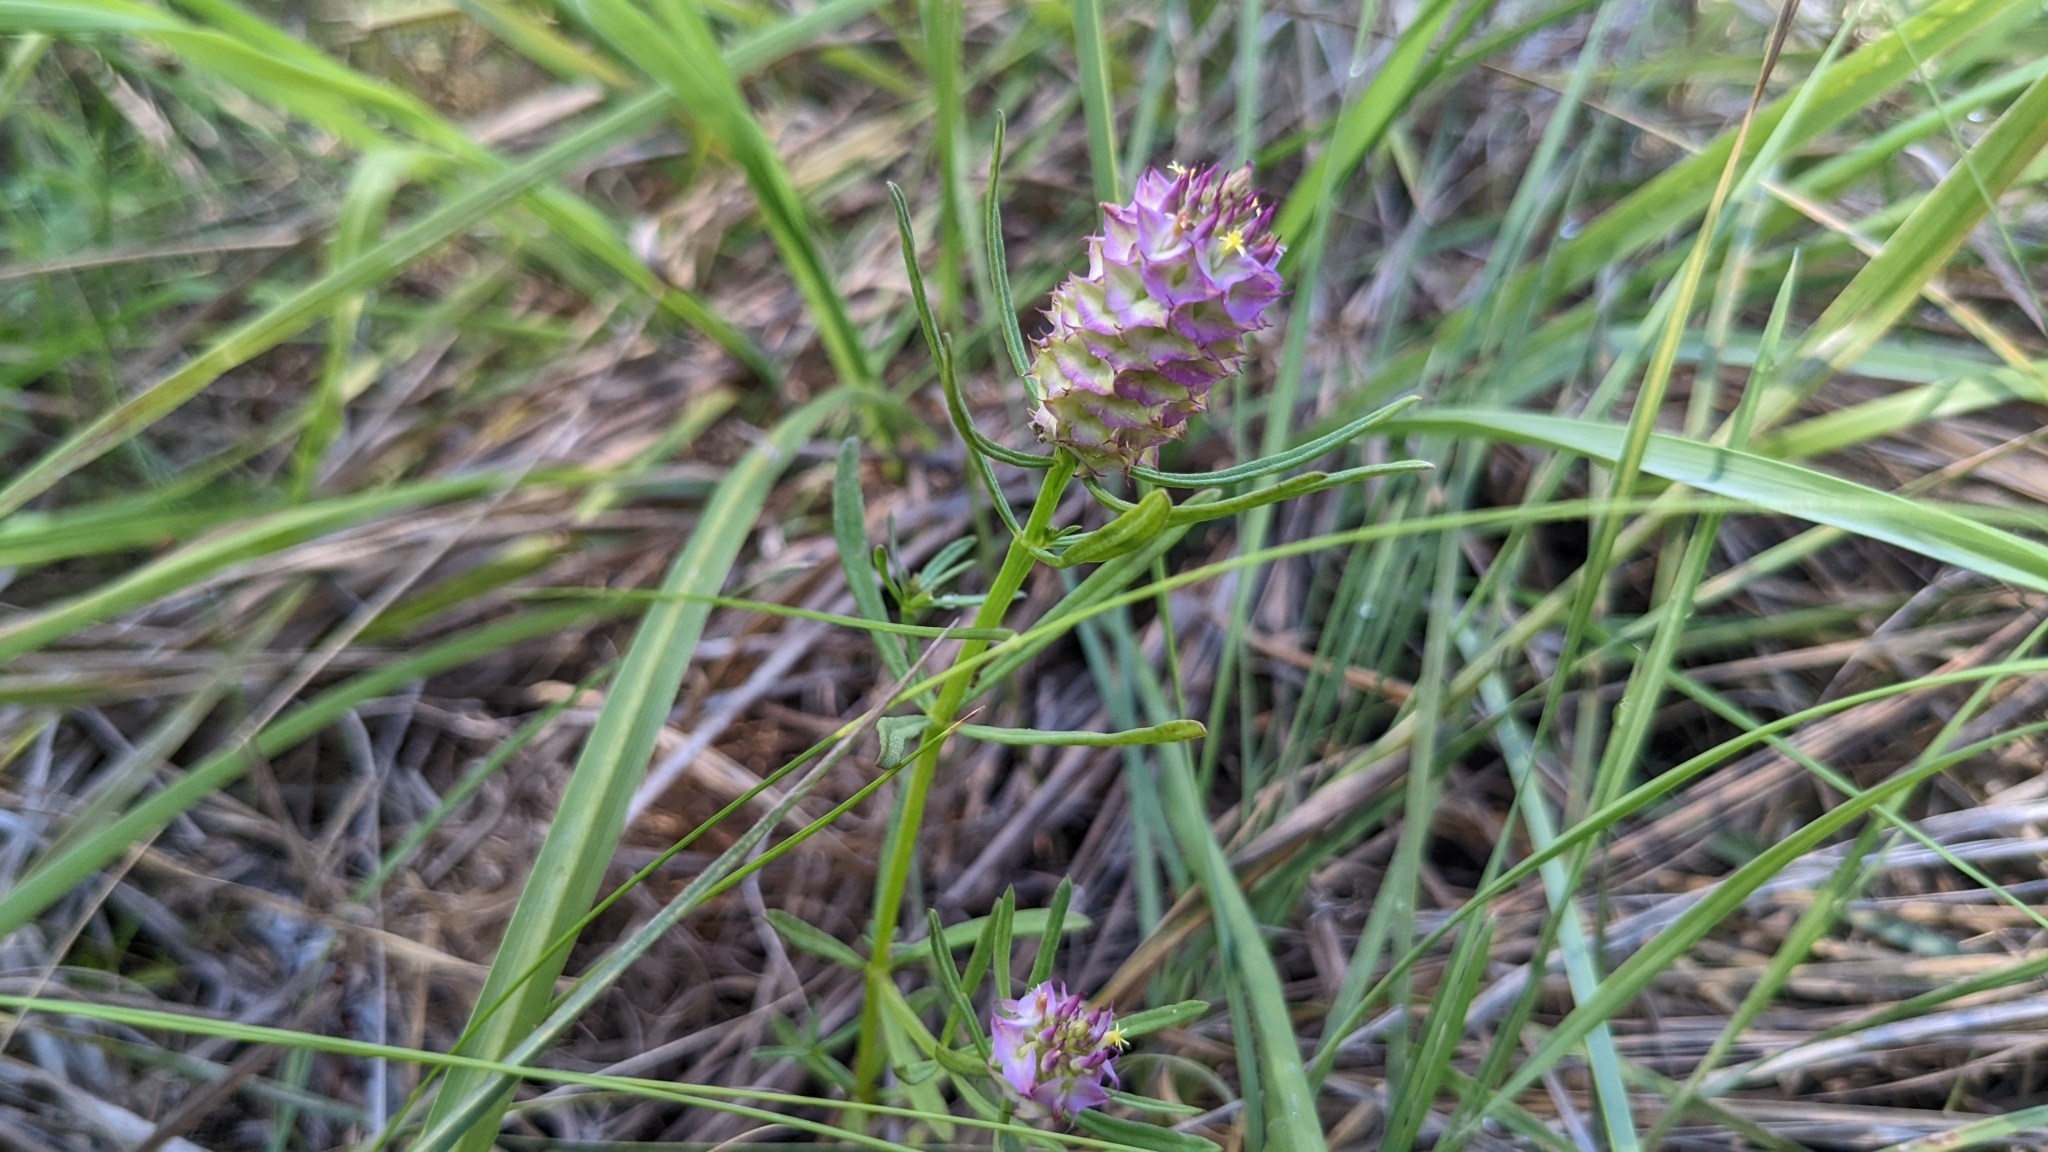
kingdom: Plantae
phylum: Tracheophyta
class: Magnoliopsida
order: Fabales
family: Polygalaceae
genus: Polygala
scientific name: Polygala cruciata
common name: Drumheads
